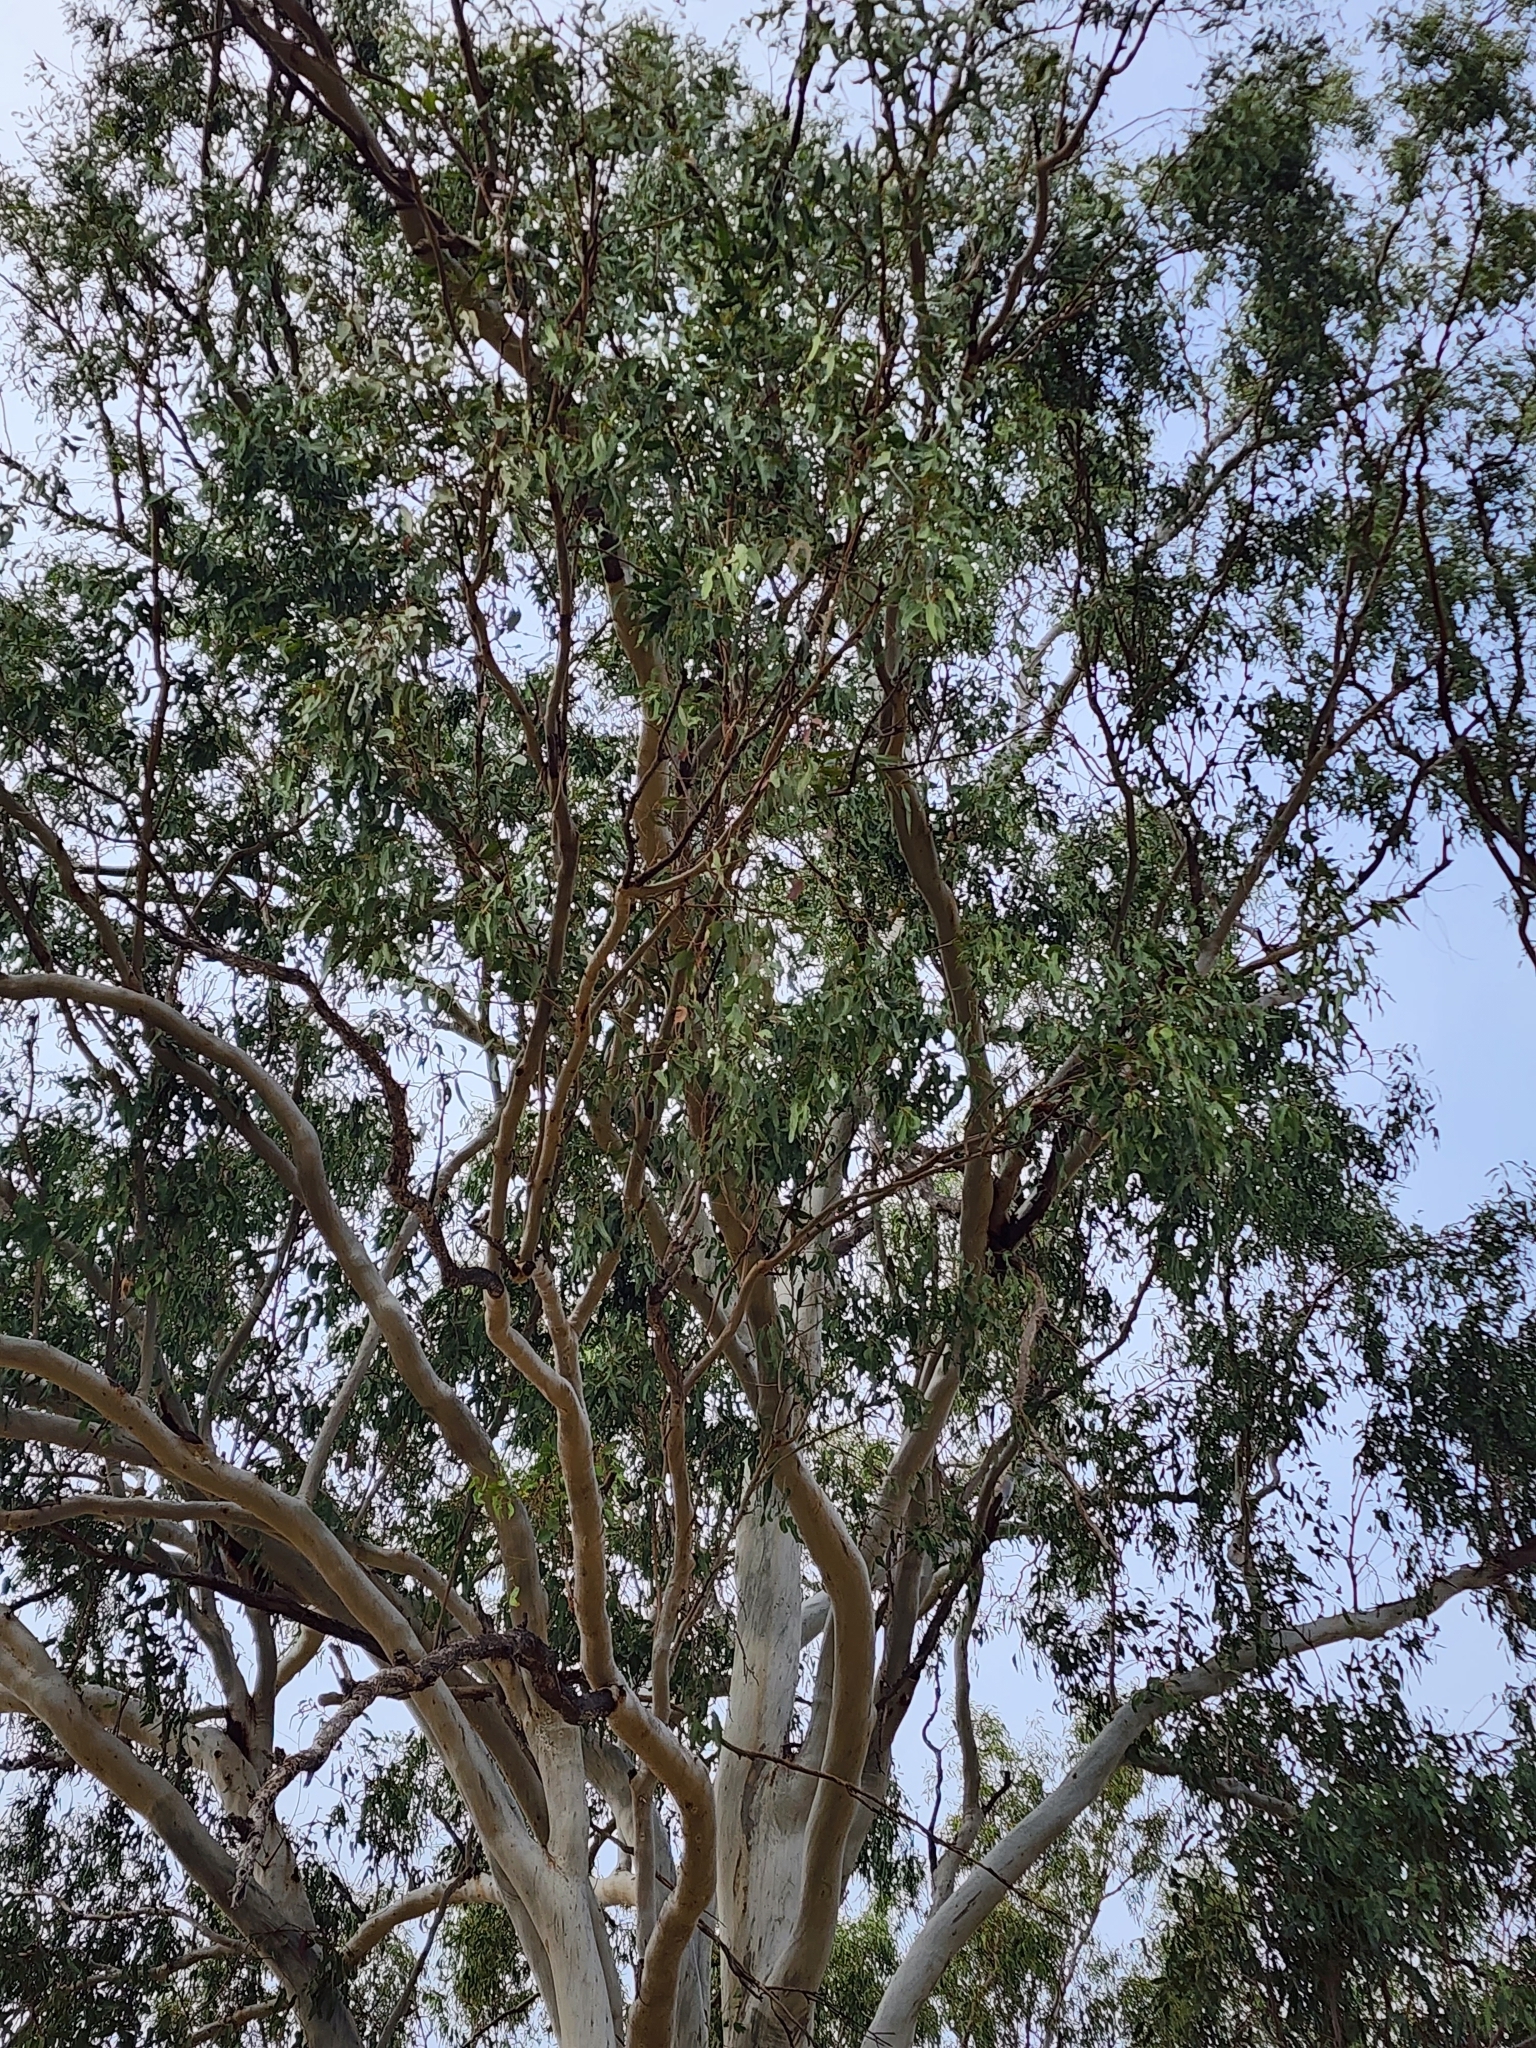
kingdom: Plantae
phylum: Tracheophyta
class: Magnoliopsida
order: Myrtales
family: Myrtaceae
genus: Eucalyptus
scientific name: Eucalyptus tereticornis
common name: Forest redgum
